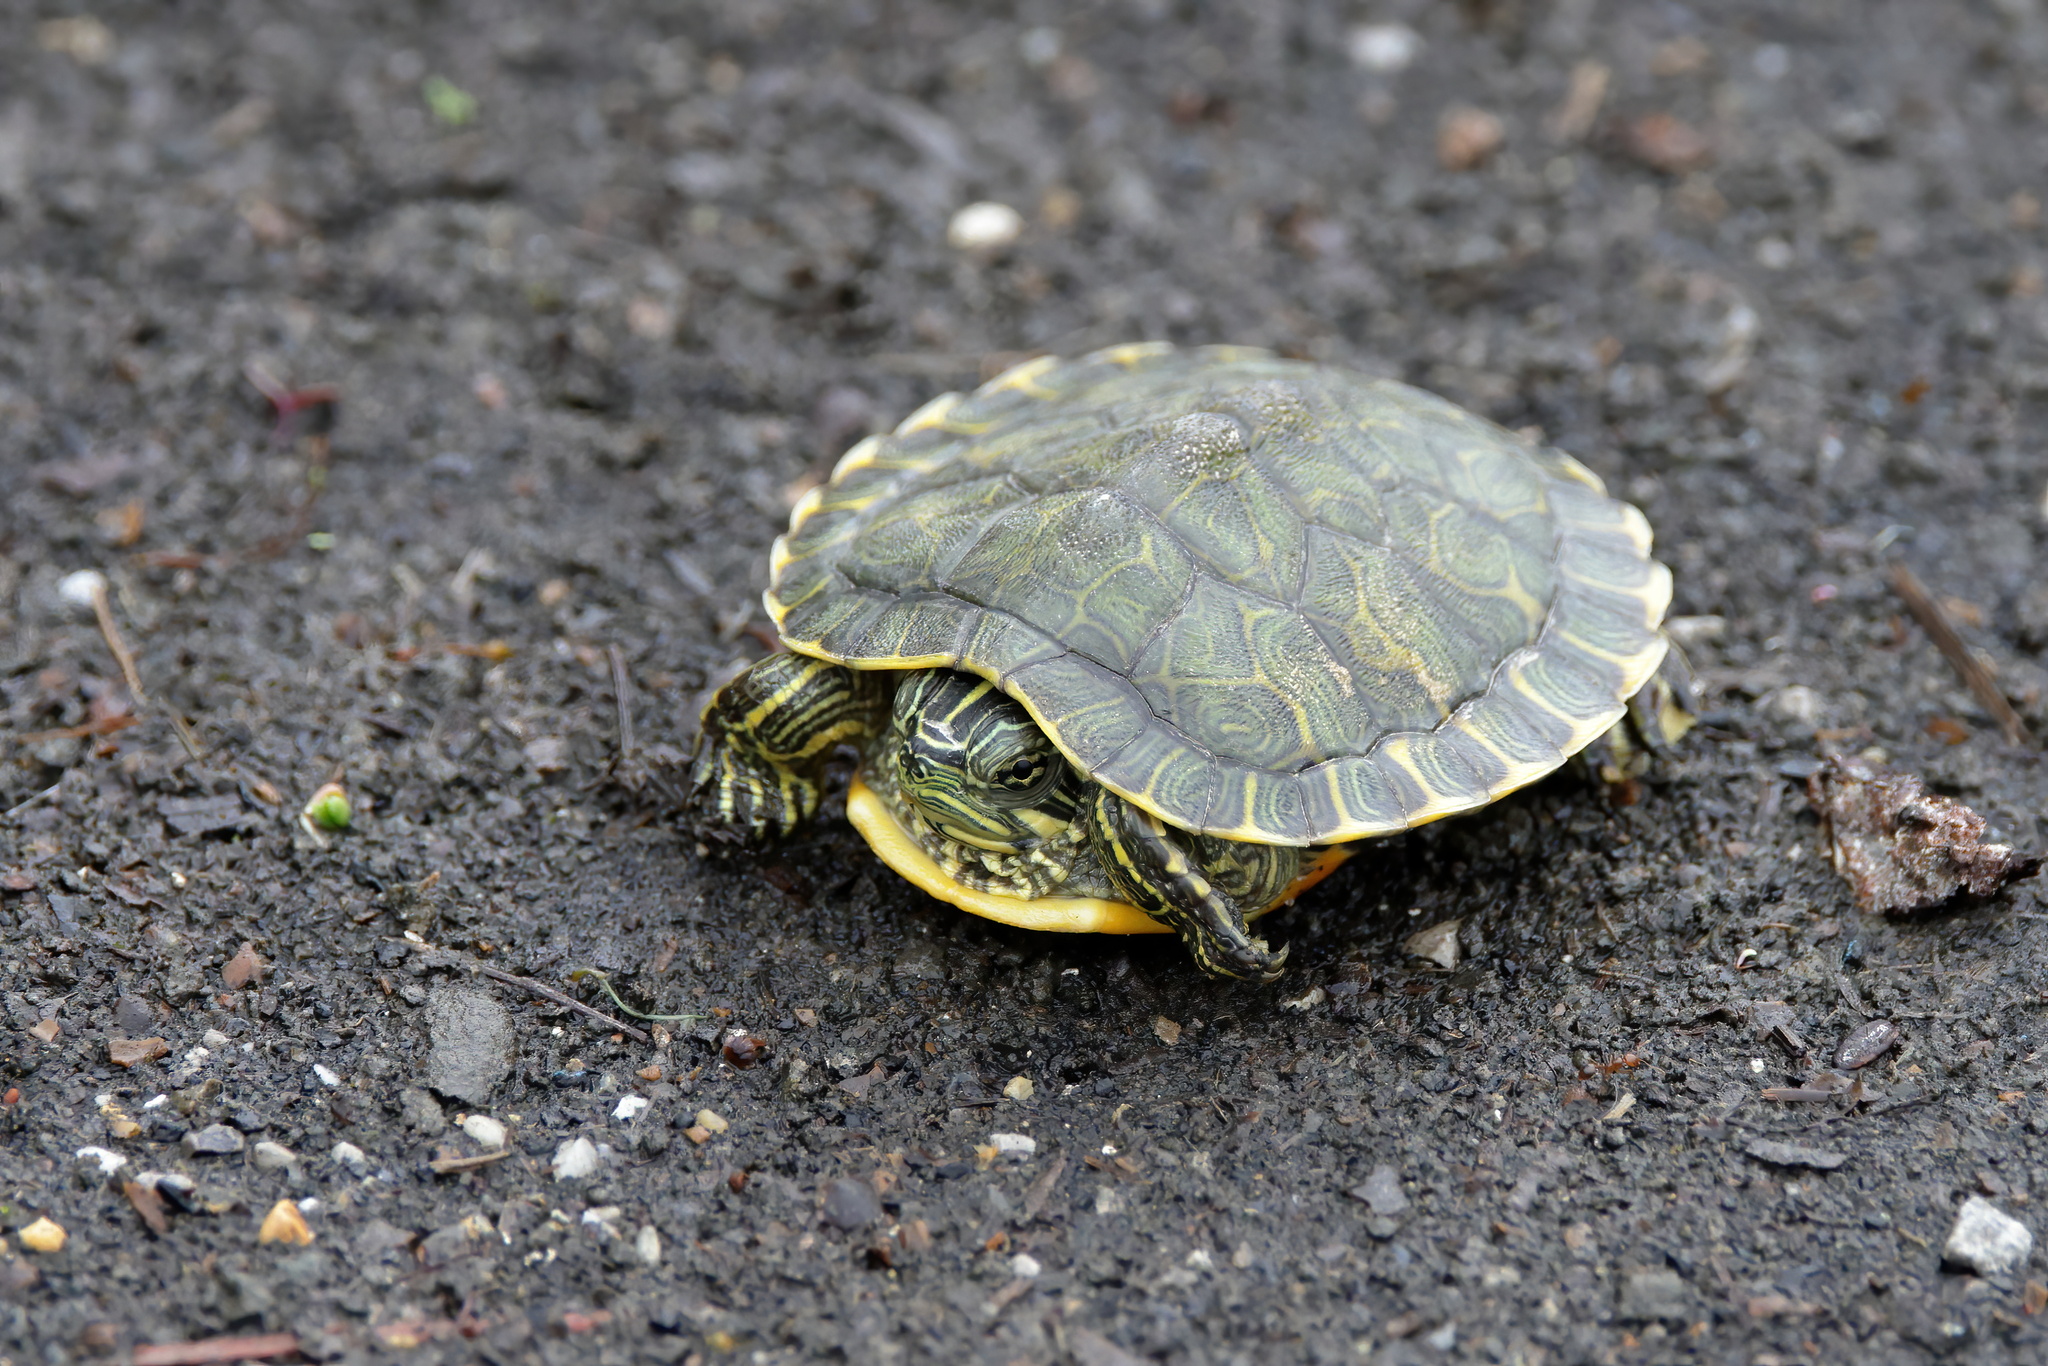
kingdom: Animalia
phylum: Chordata
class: Testudines
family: Emydidae
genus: Pseudemys
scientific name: Pseudemys alabamensis
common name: Alabama red-bellied turtle
